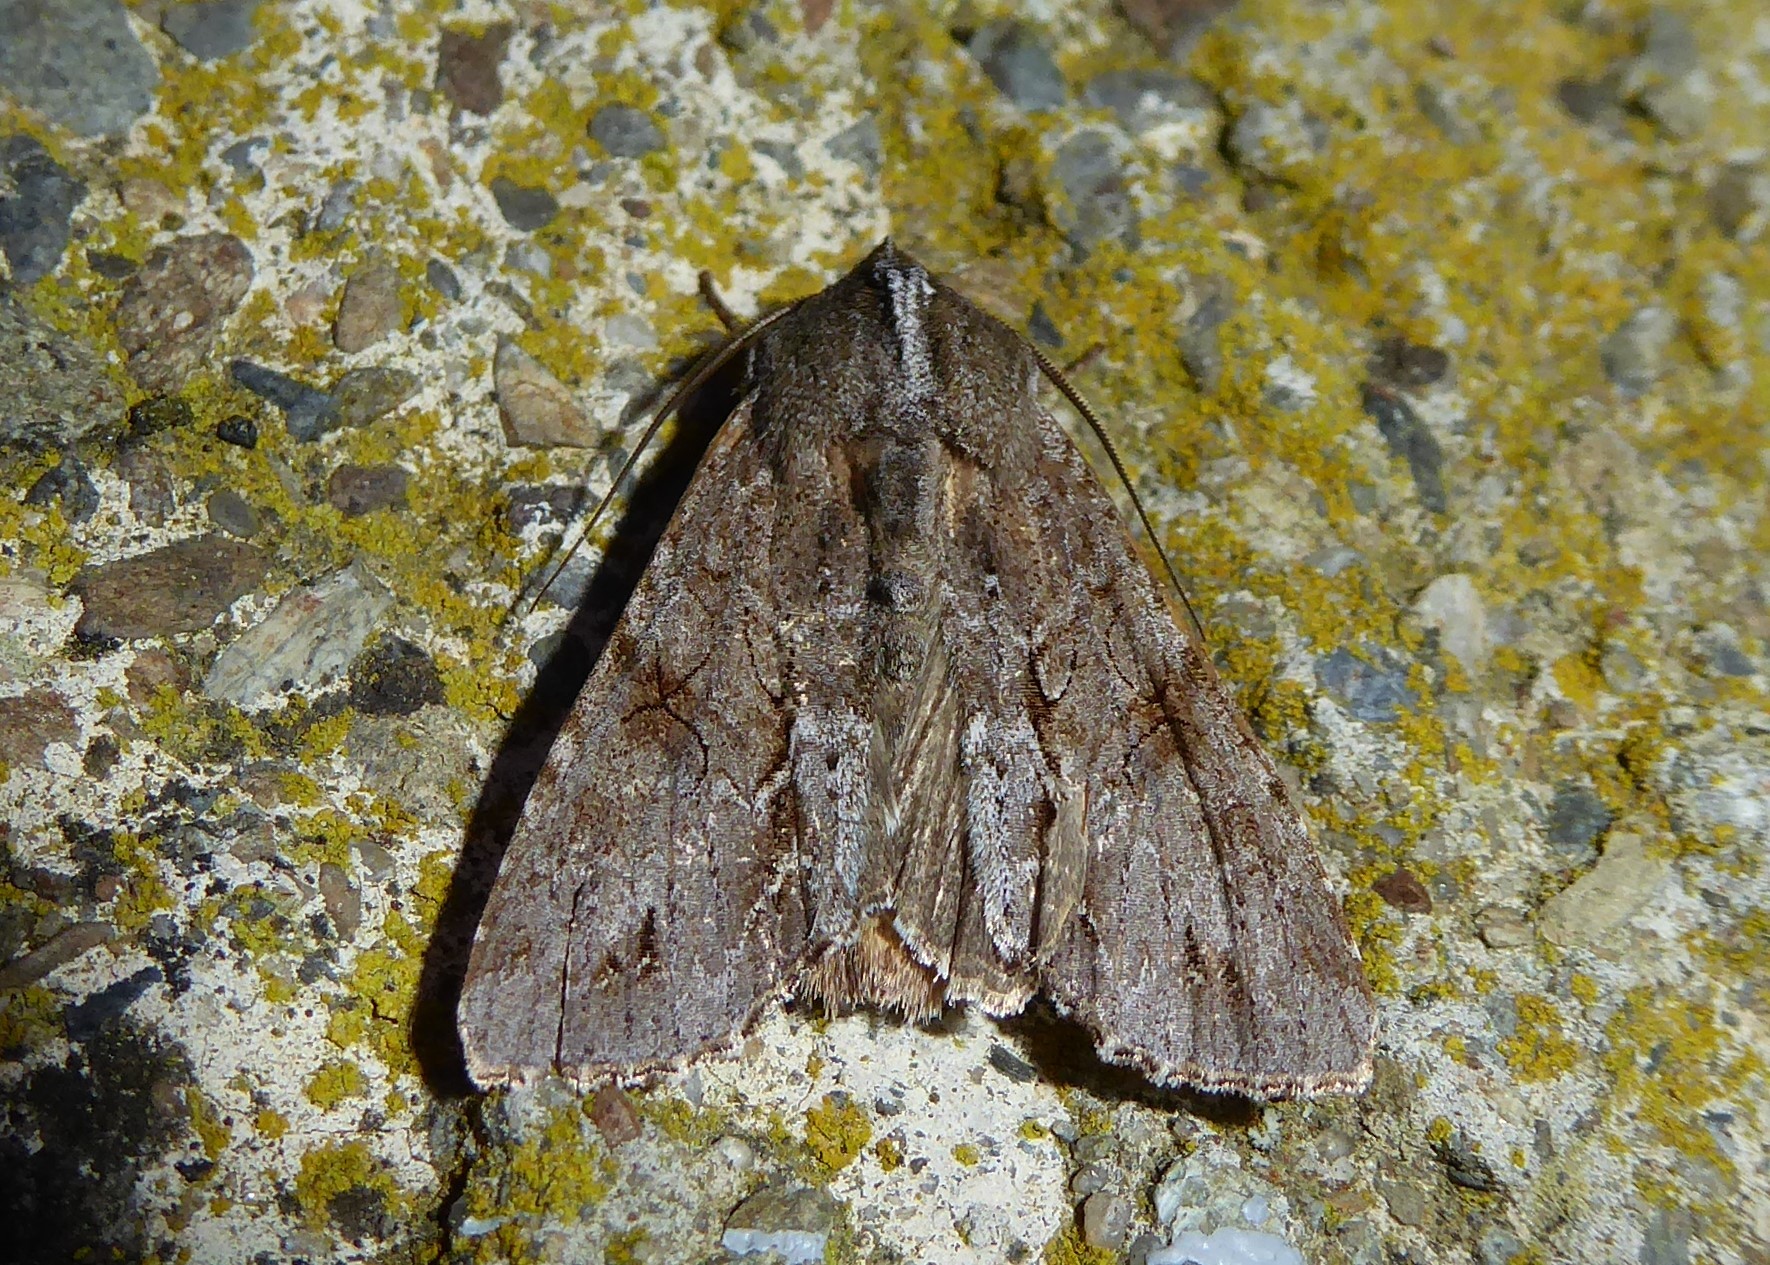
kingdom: Animalia
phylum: Arthropoda
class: Insecta
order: Lepidoptera
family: Noctuidae
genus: Ichneutica
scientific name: Ichneutica
